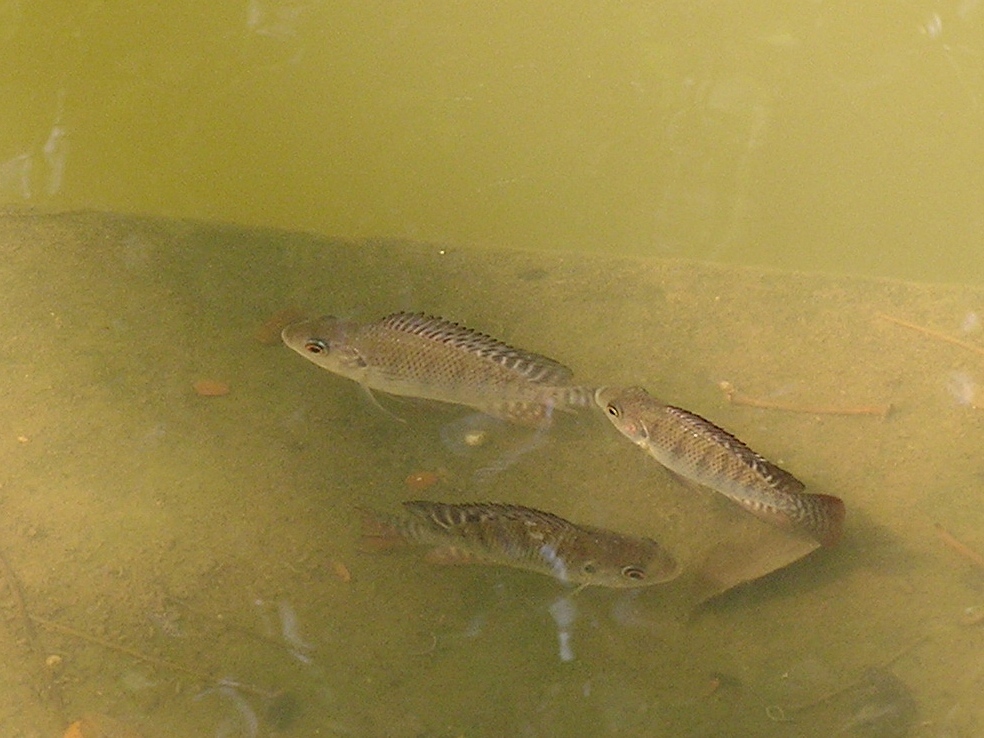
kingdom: Animalia
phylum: Chordata
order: Perciformes
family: Cichlidae
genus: Oreochromis
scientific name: Oreochromis niloticus
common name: Nile tilapia
